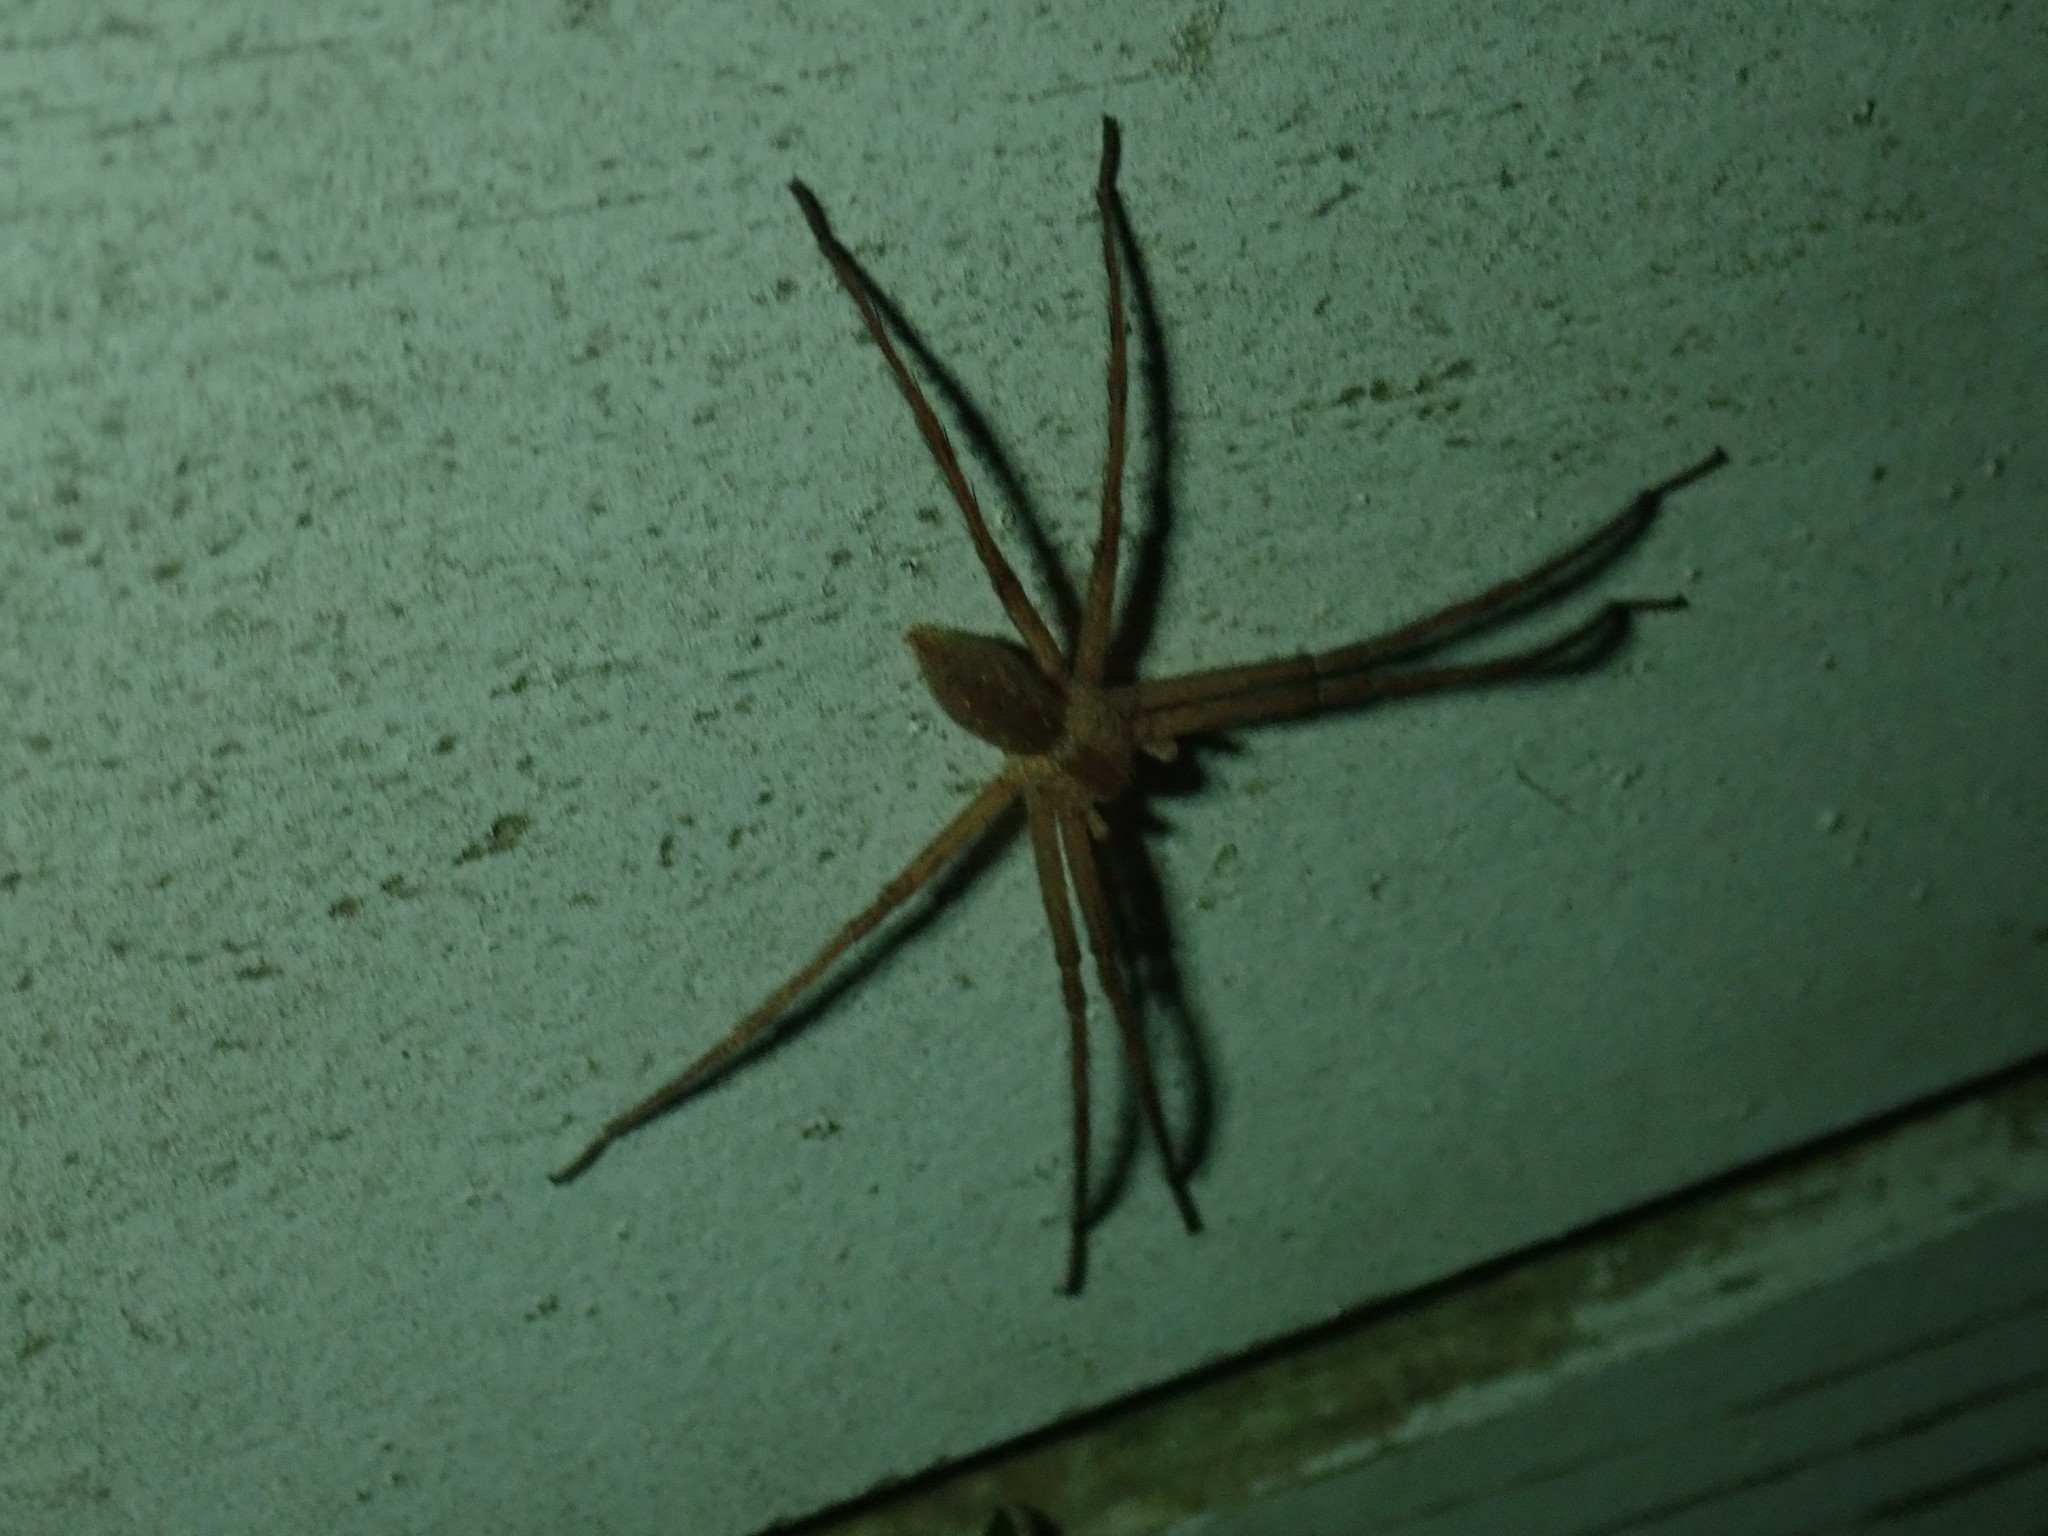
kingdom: Animalia
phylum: Arthropoda
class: Arachnida
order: Araneae
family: Pisauridae
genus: Pisaurina
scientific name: Pisaurina mira
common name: American nursery web spider
